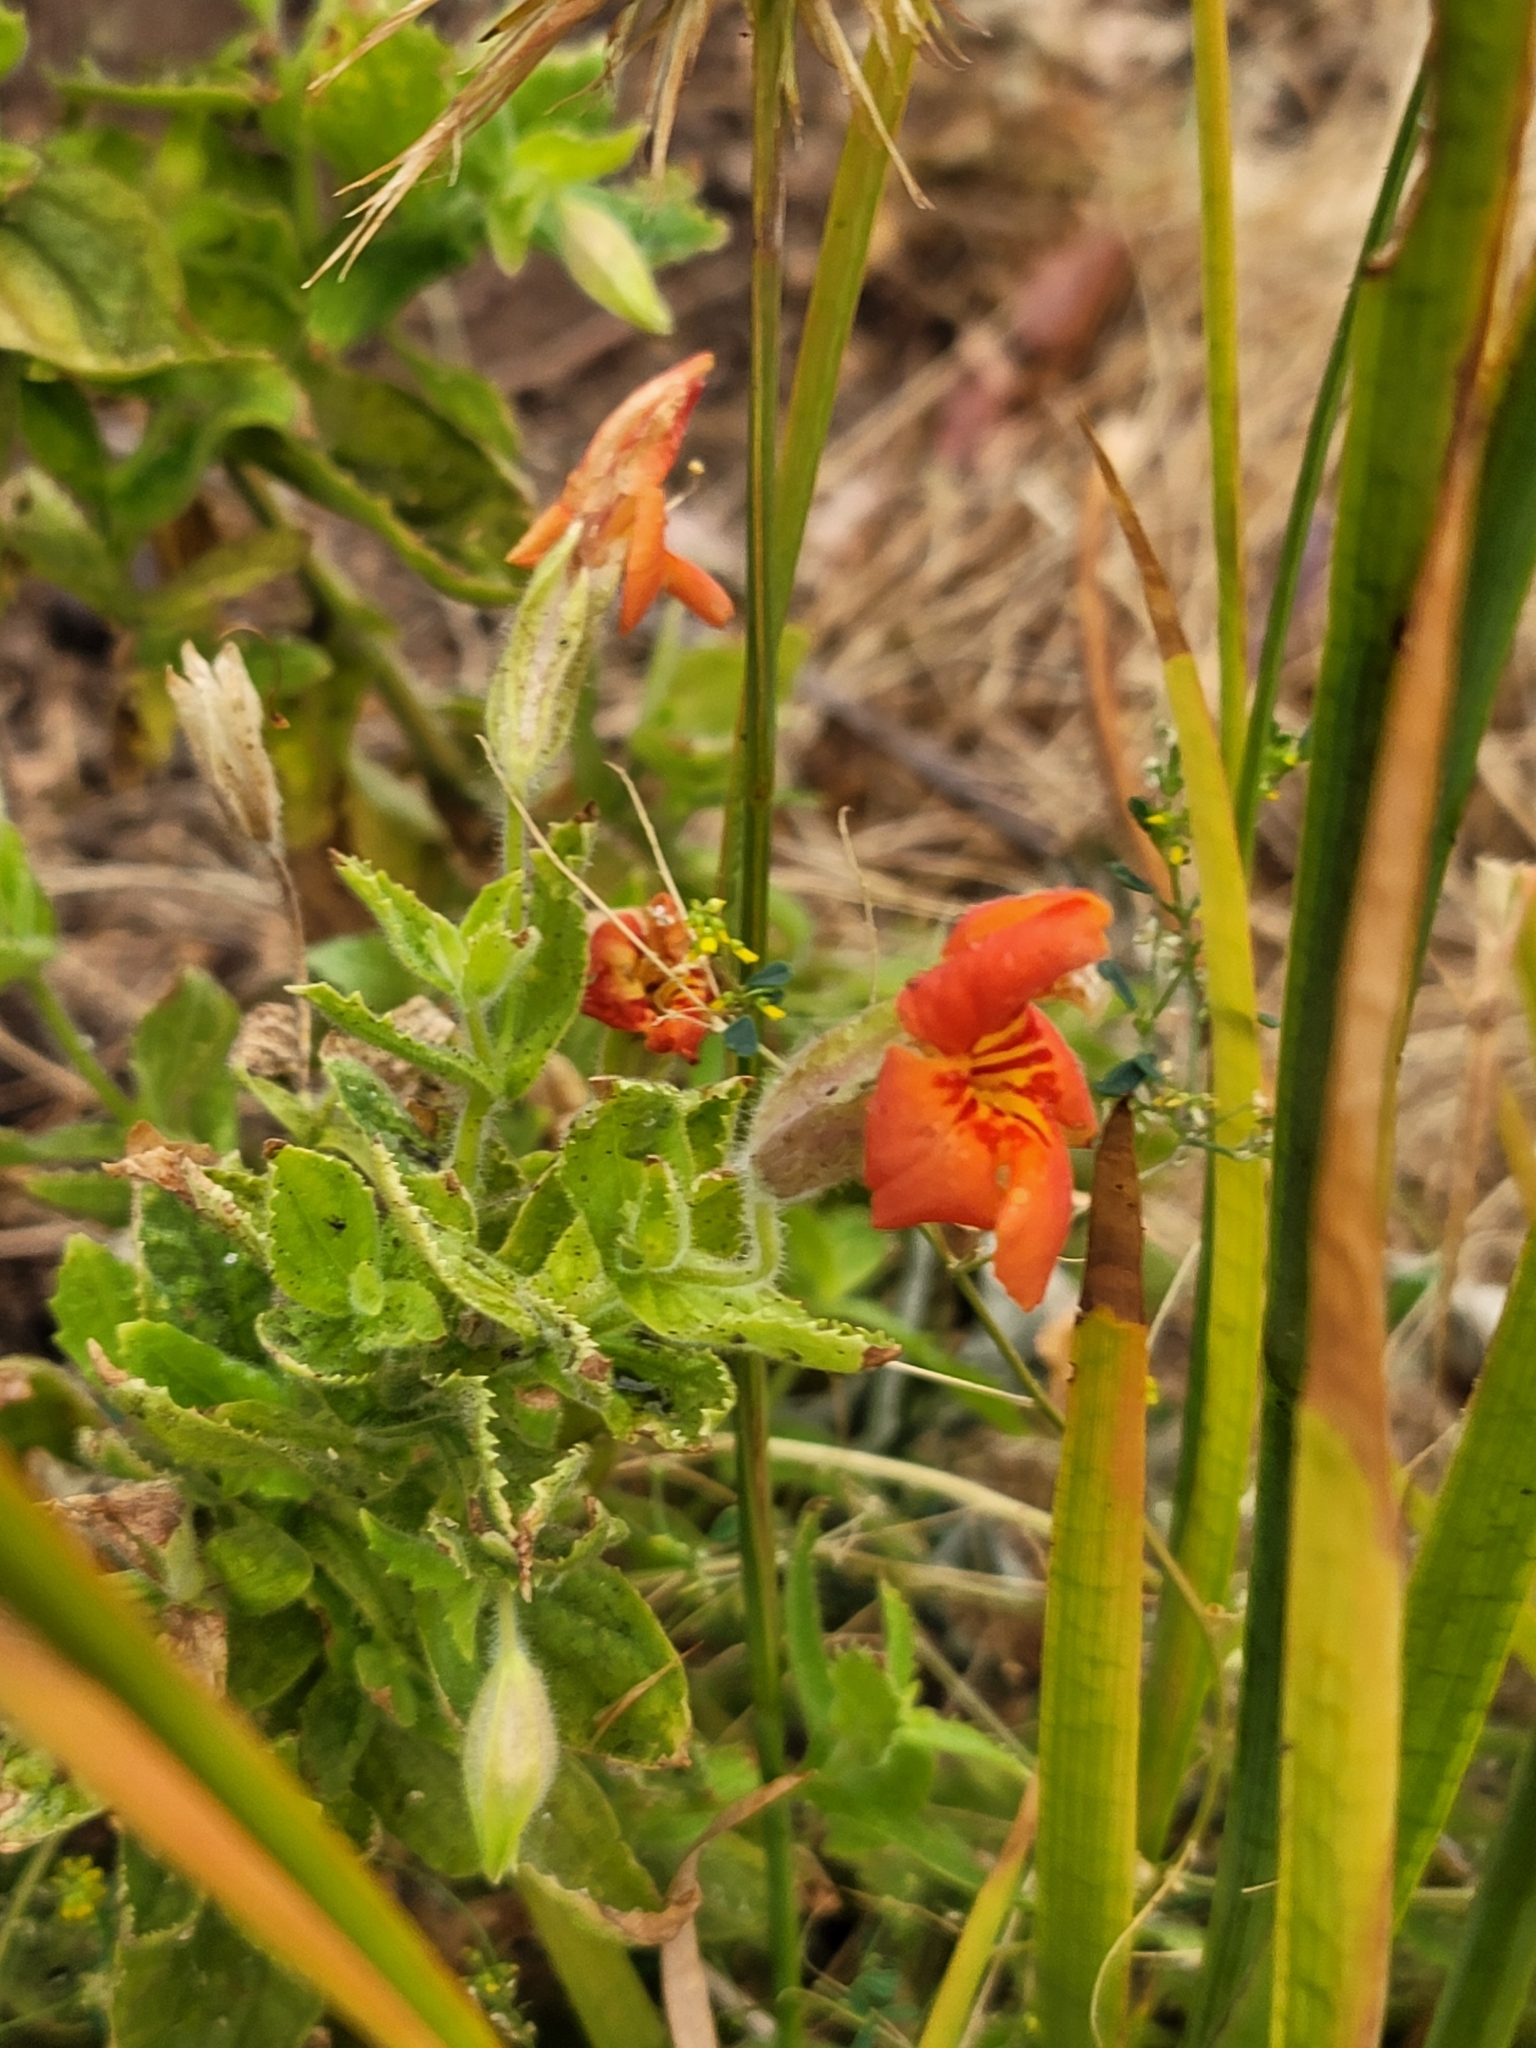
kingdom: Plantae
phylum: Tracheophyta
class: Magnoliopsida
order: Lamiales
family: Phrymaceae
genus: Erythranthe
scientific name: Erythranthe cardinalis
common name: Scarlet monkey-flower
